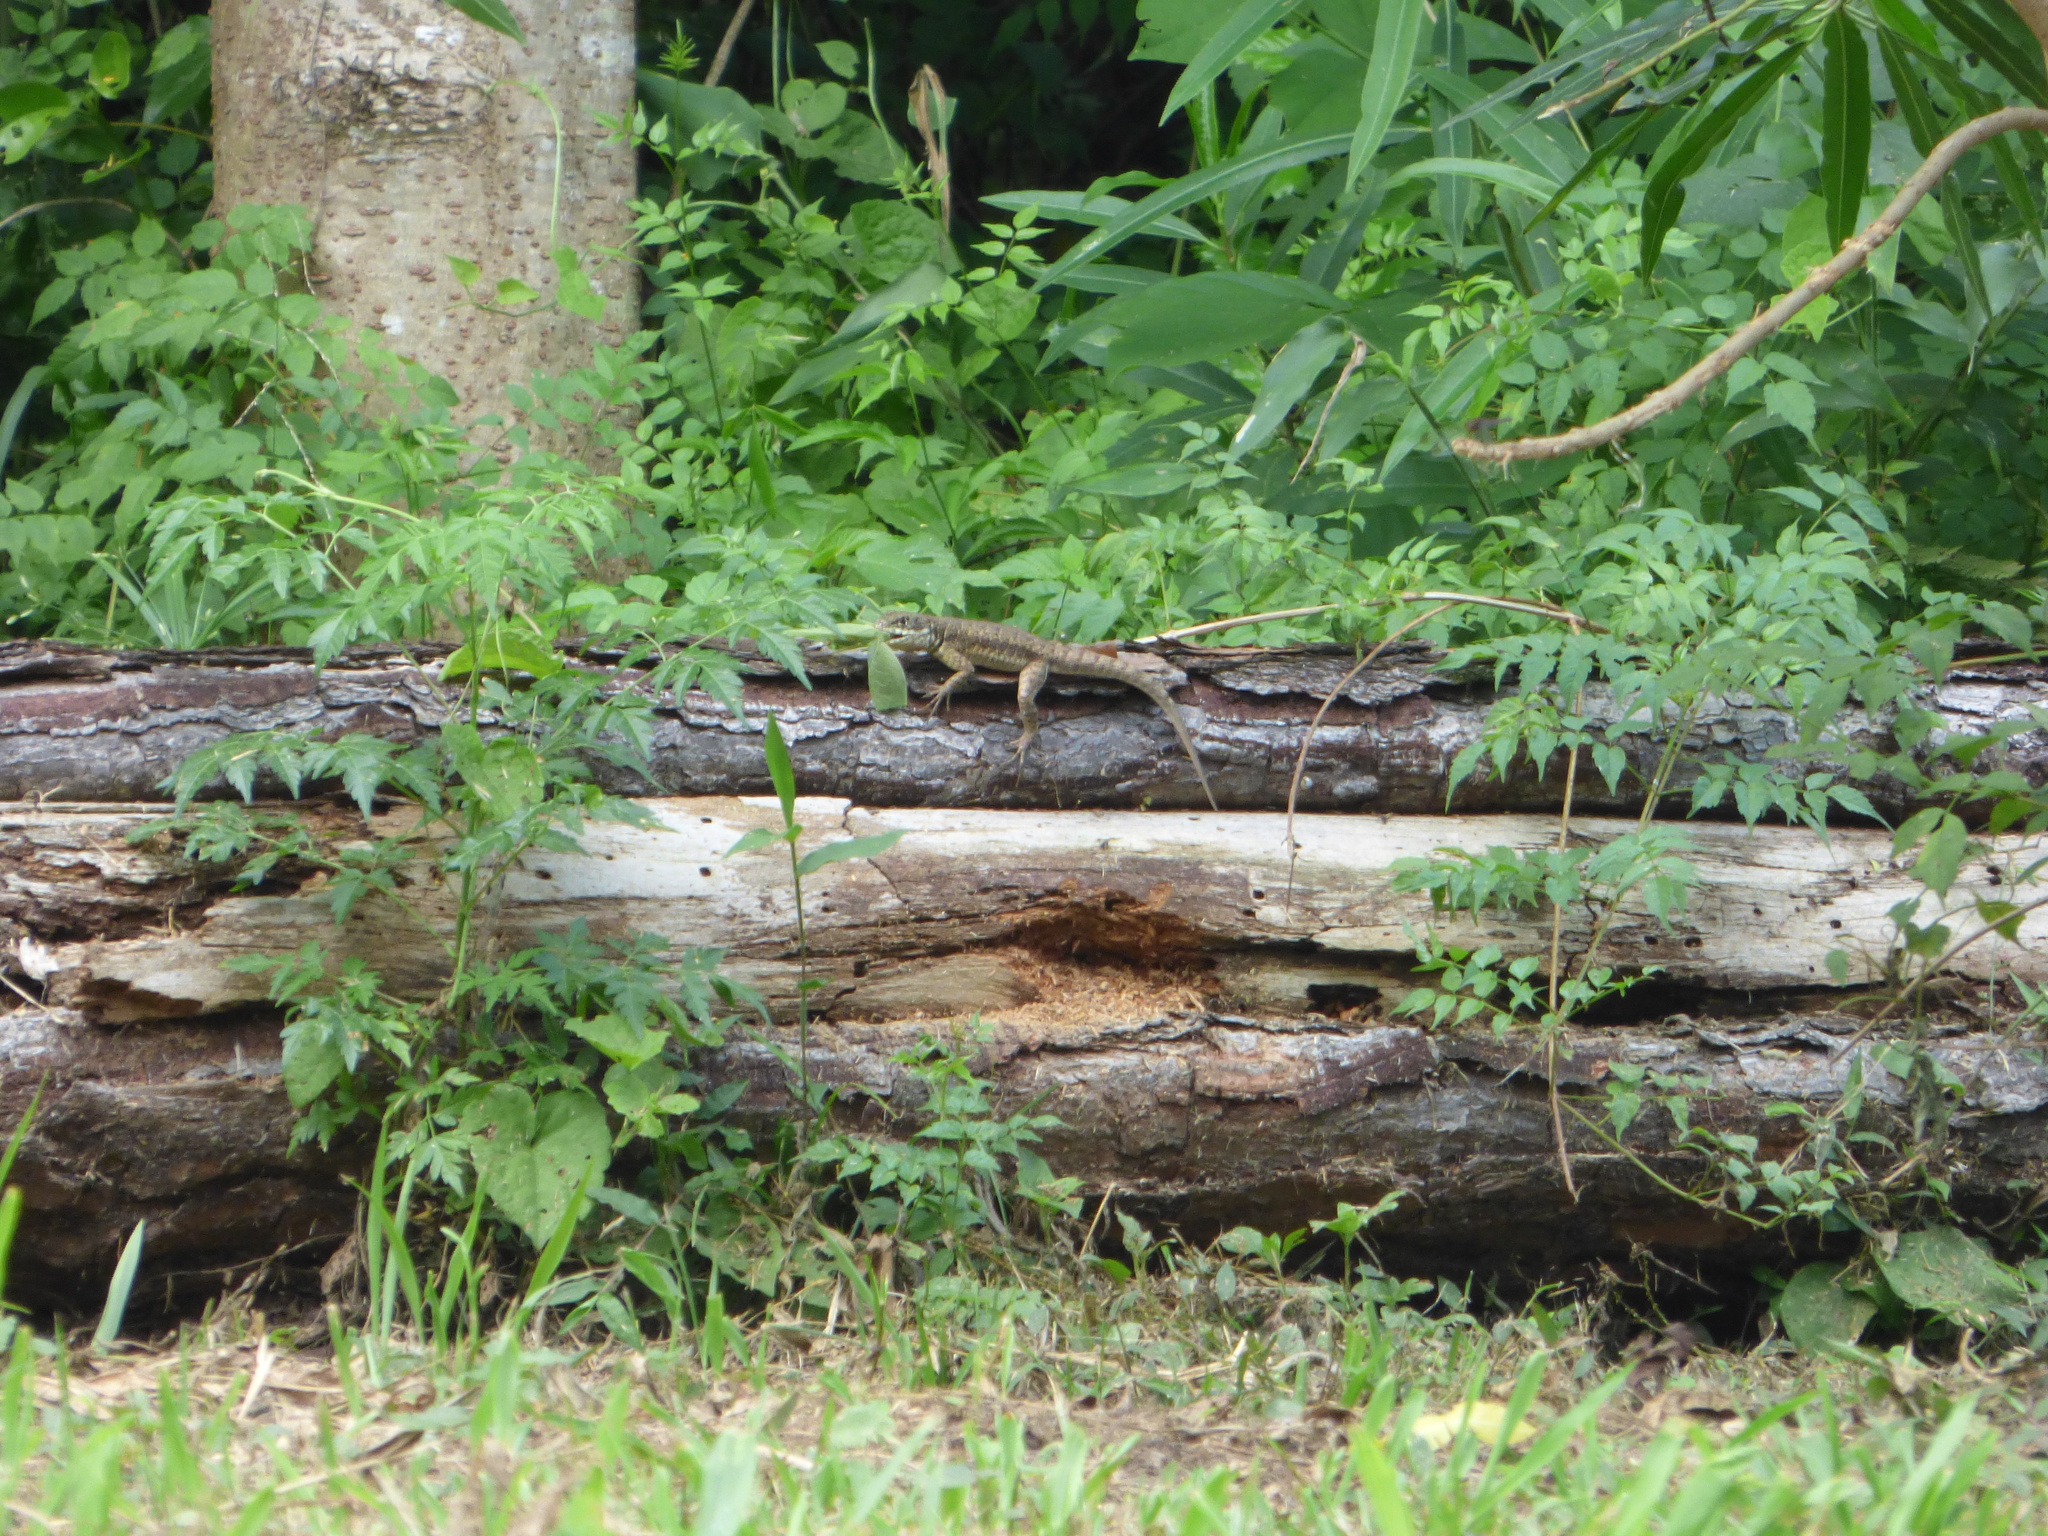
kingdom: Animalia
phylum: Chordata
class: Squamata
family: Tropiduridae
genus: Tropidurus
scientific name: Tropidurus catalanensis
